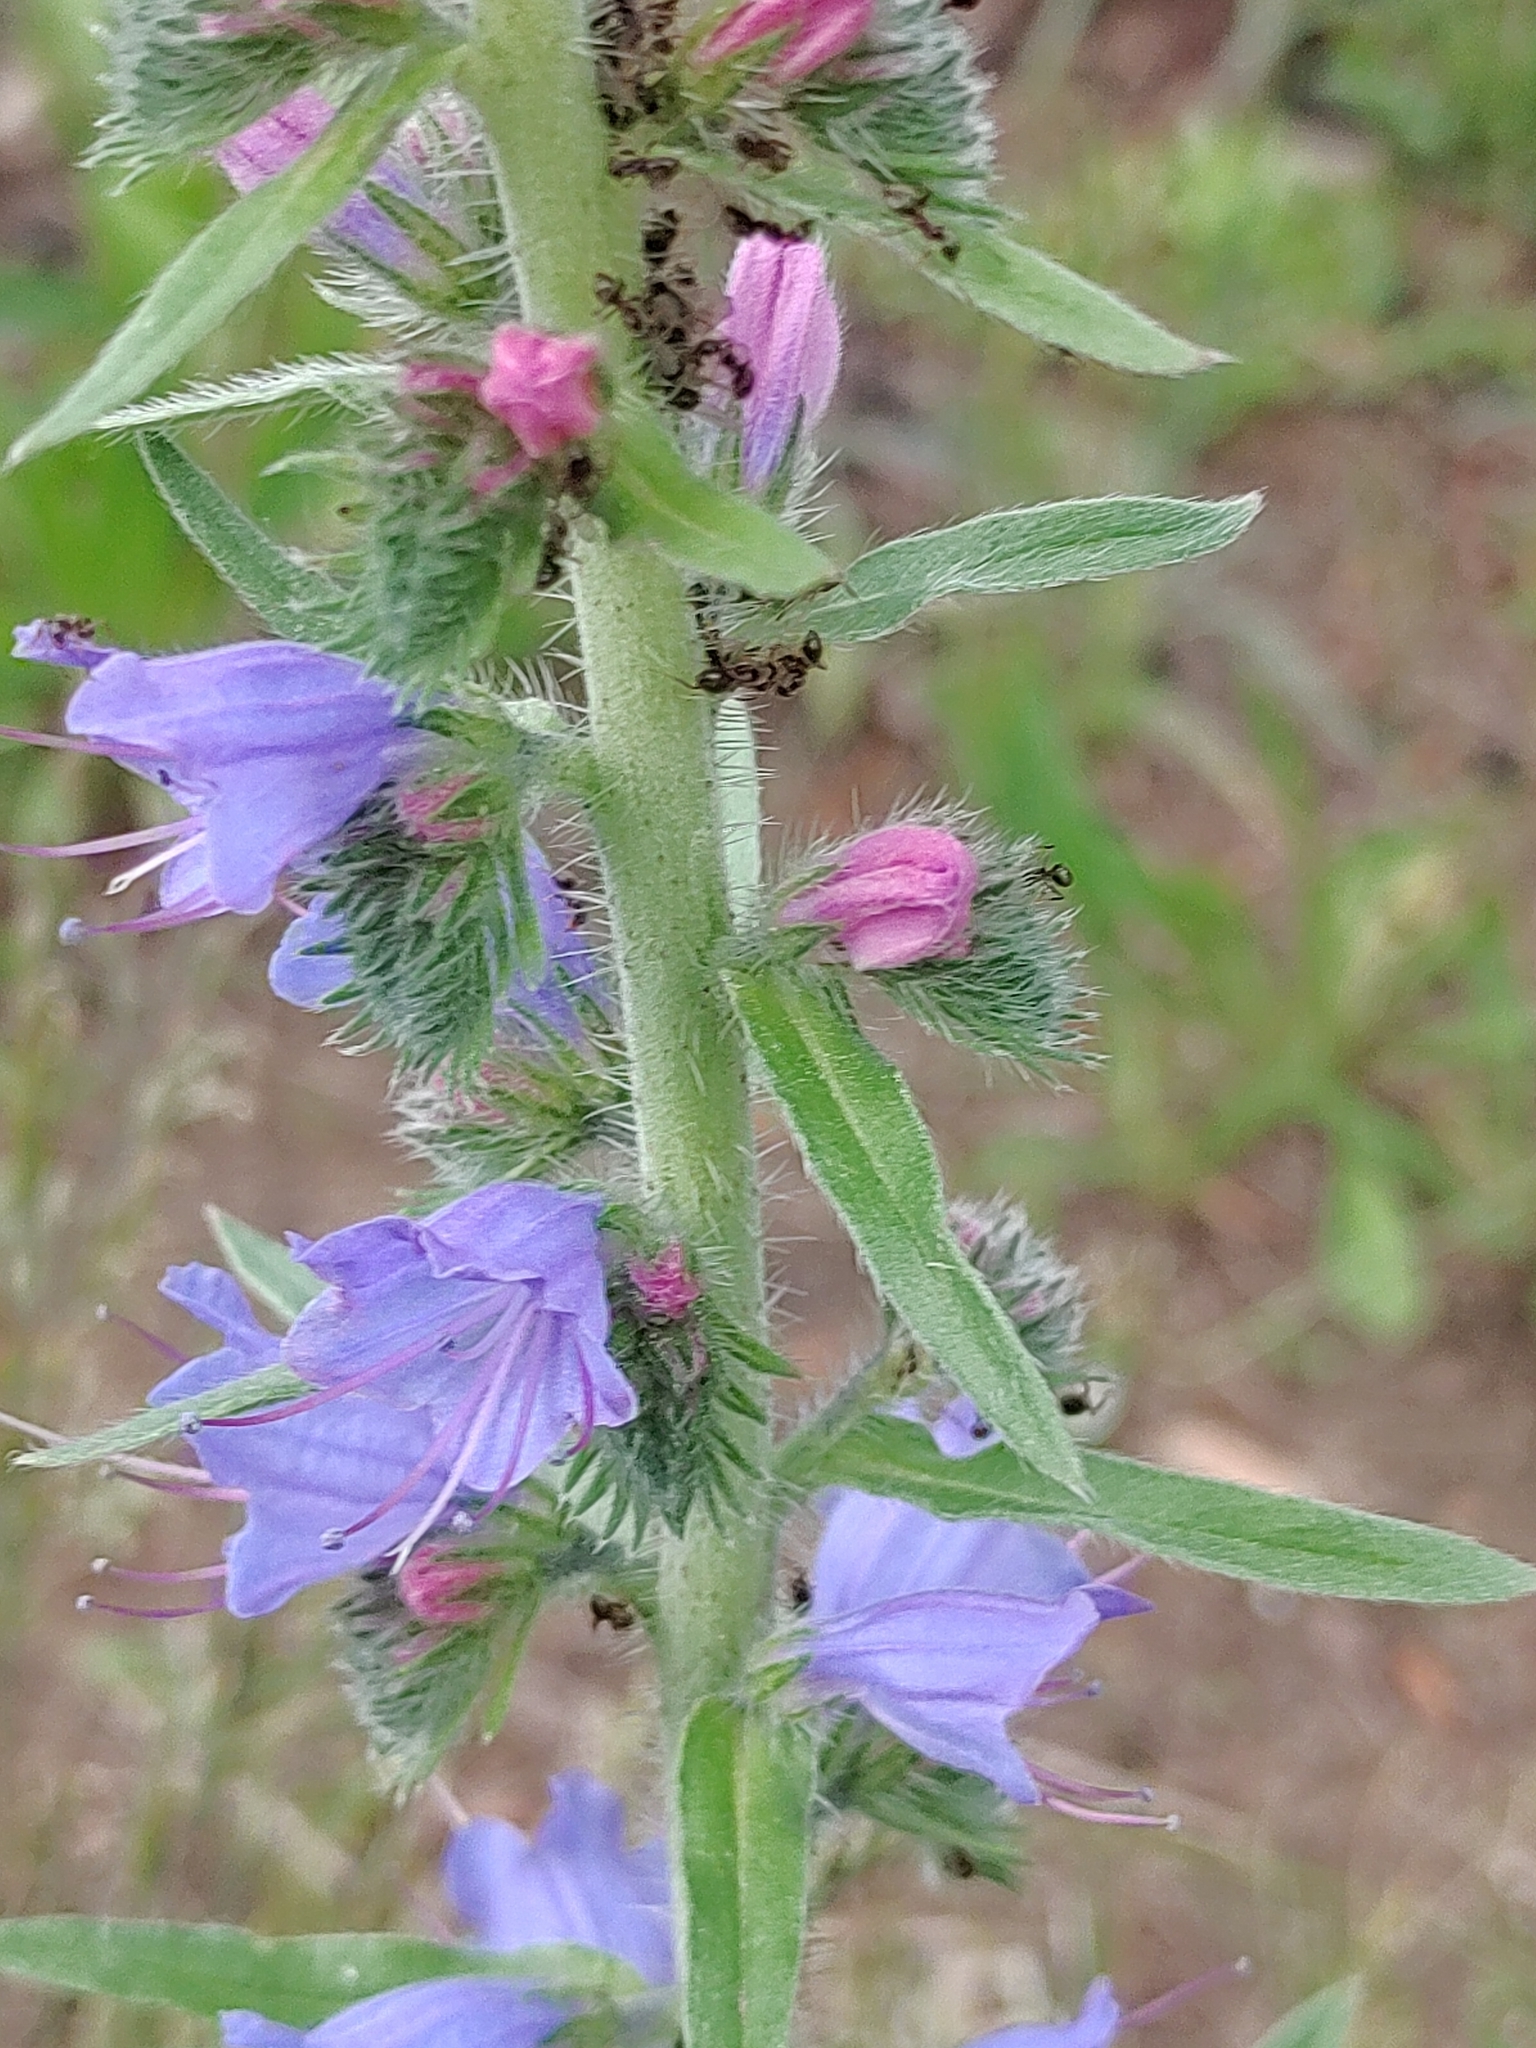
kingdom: Plantae
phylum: Tracheophyta
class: Magnoliopsida
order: Boraginales
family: Boraginaceae
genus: Echium
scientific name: Echium vulgare
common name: Common viper's bugloss
